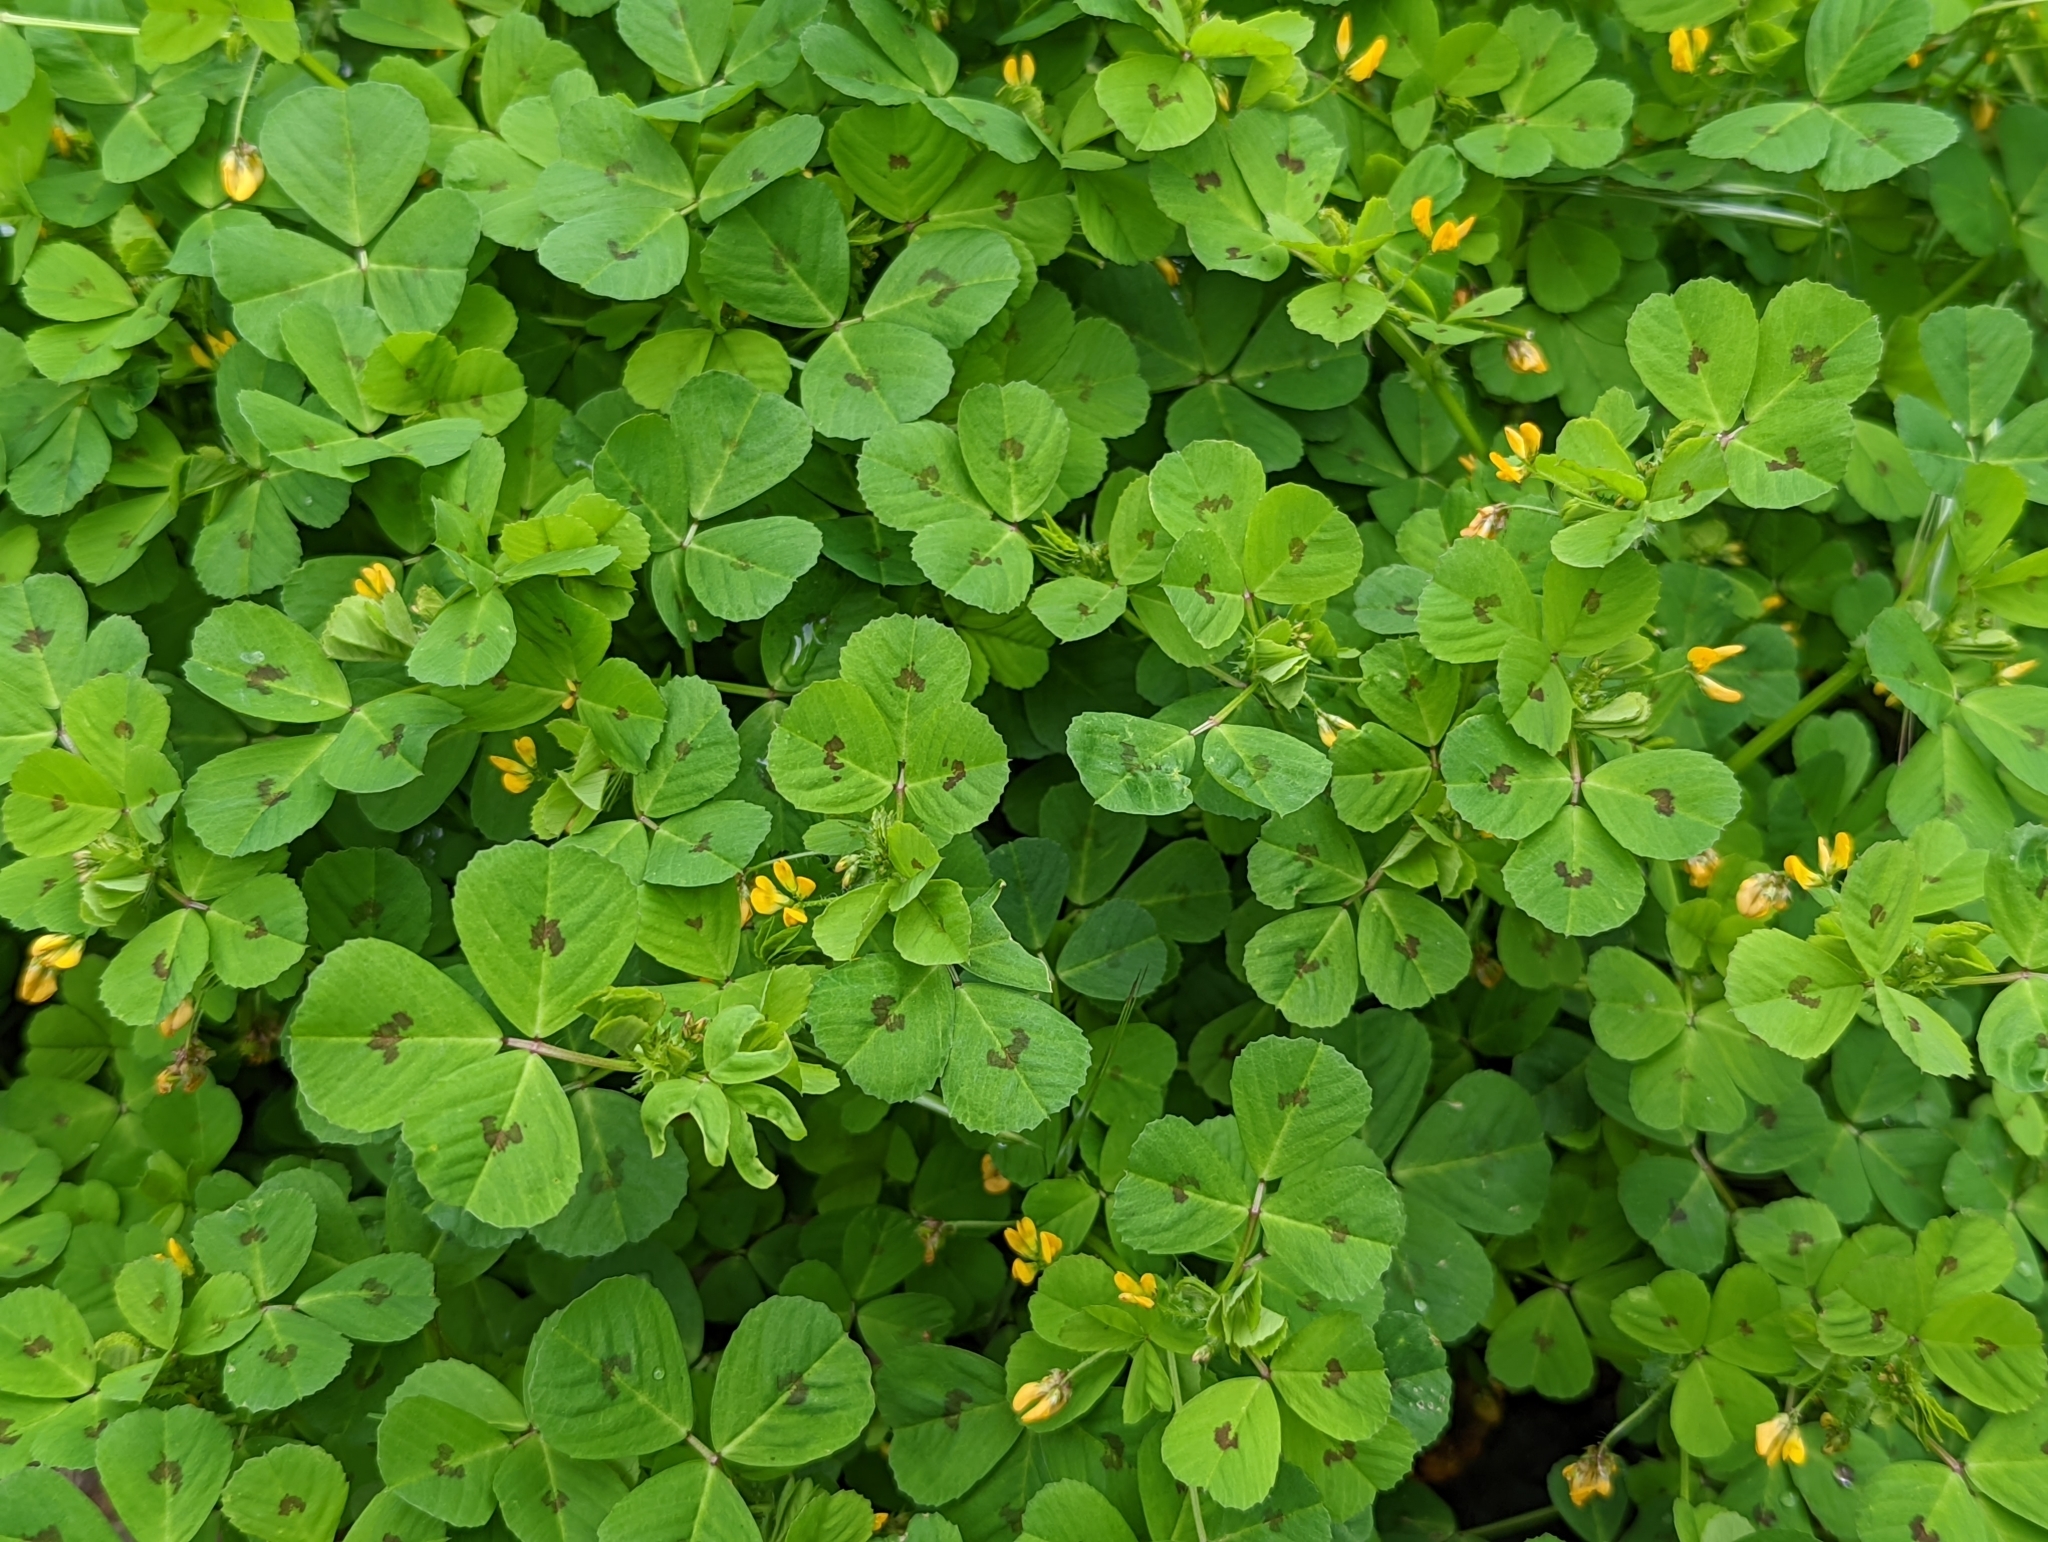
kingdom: Plantae
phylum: Tracheophyta
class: Magnoliopsida
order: Fabales
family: Fabaceae
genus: Medicago
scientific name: Medicago arabica
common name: Spotted medick
